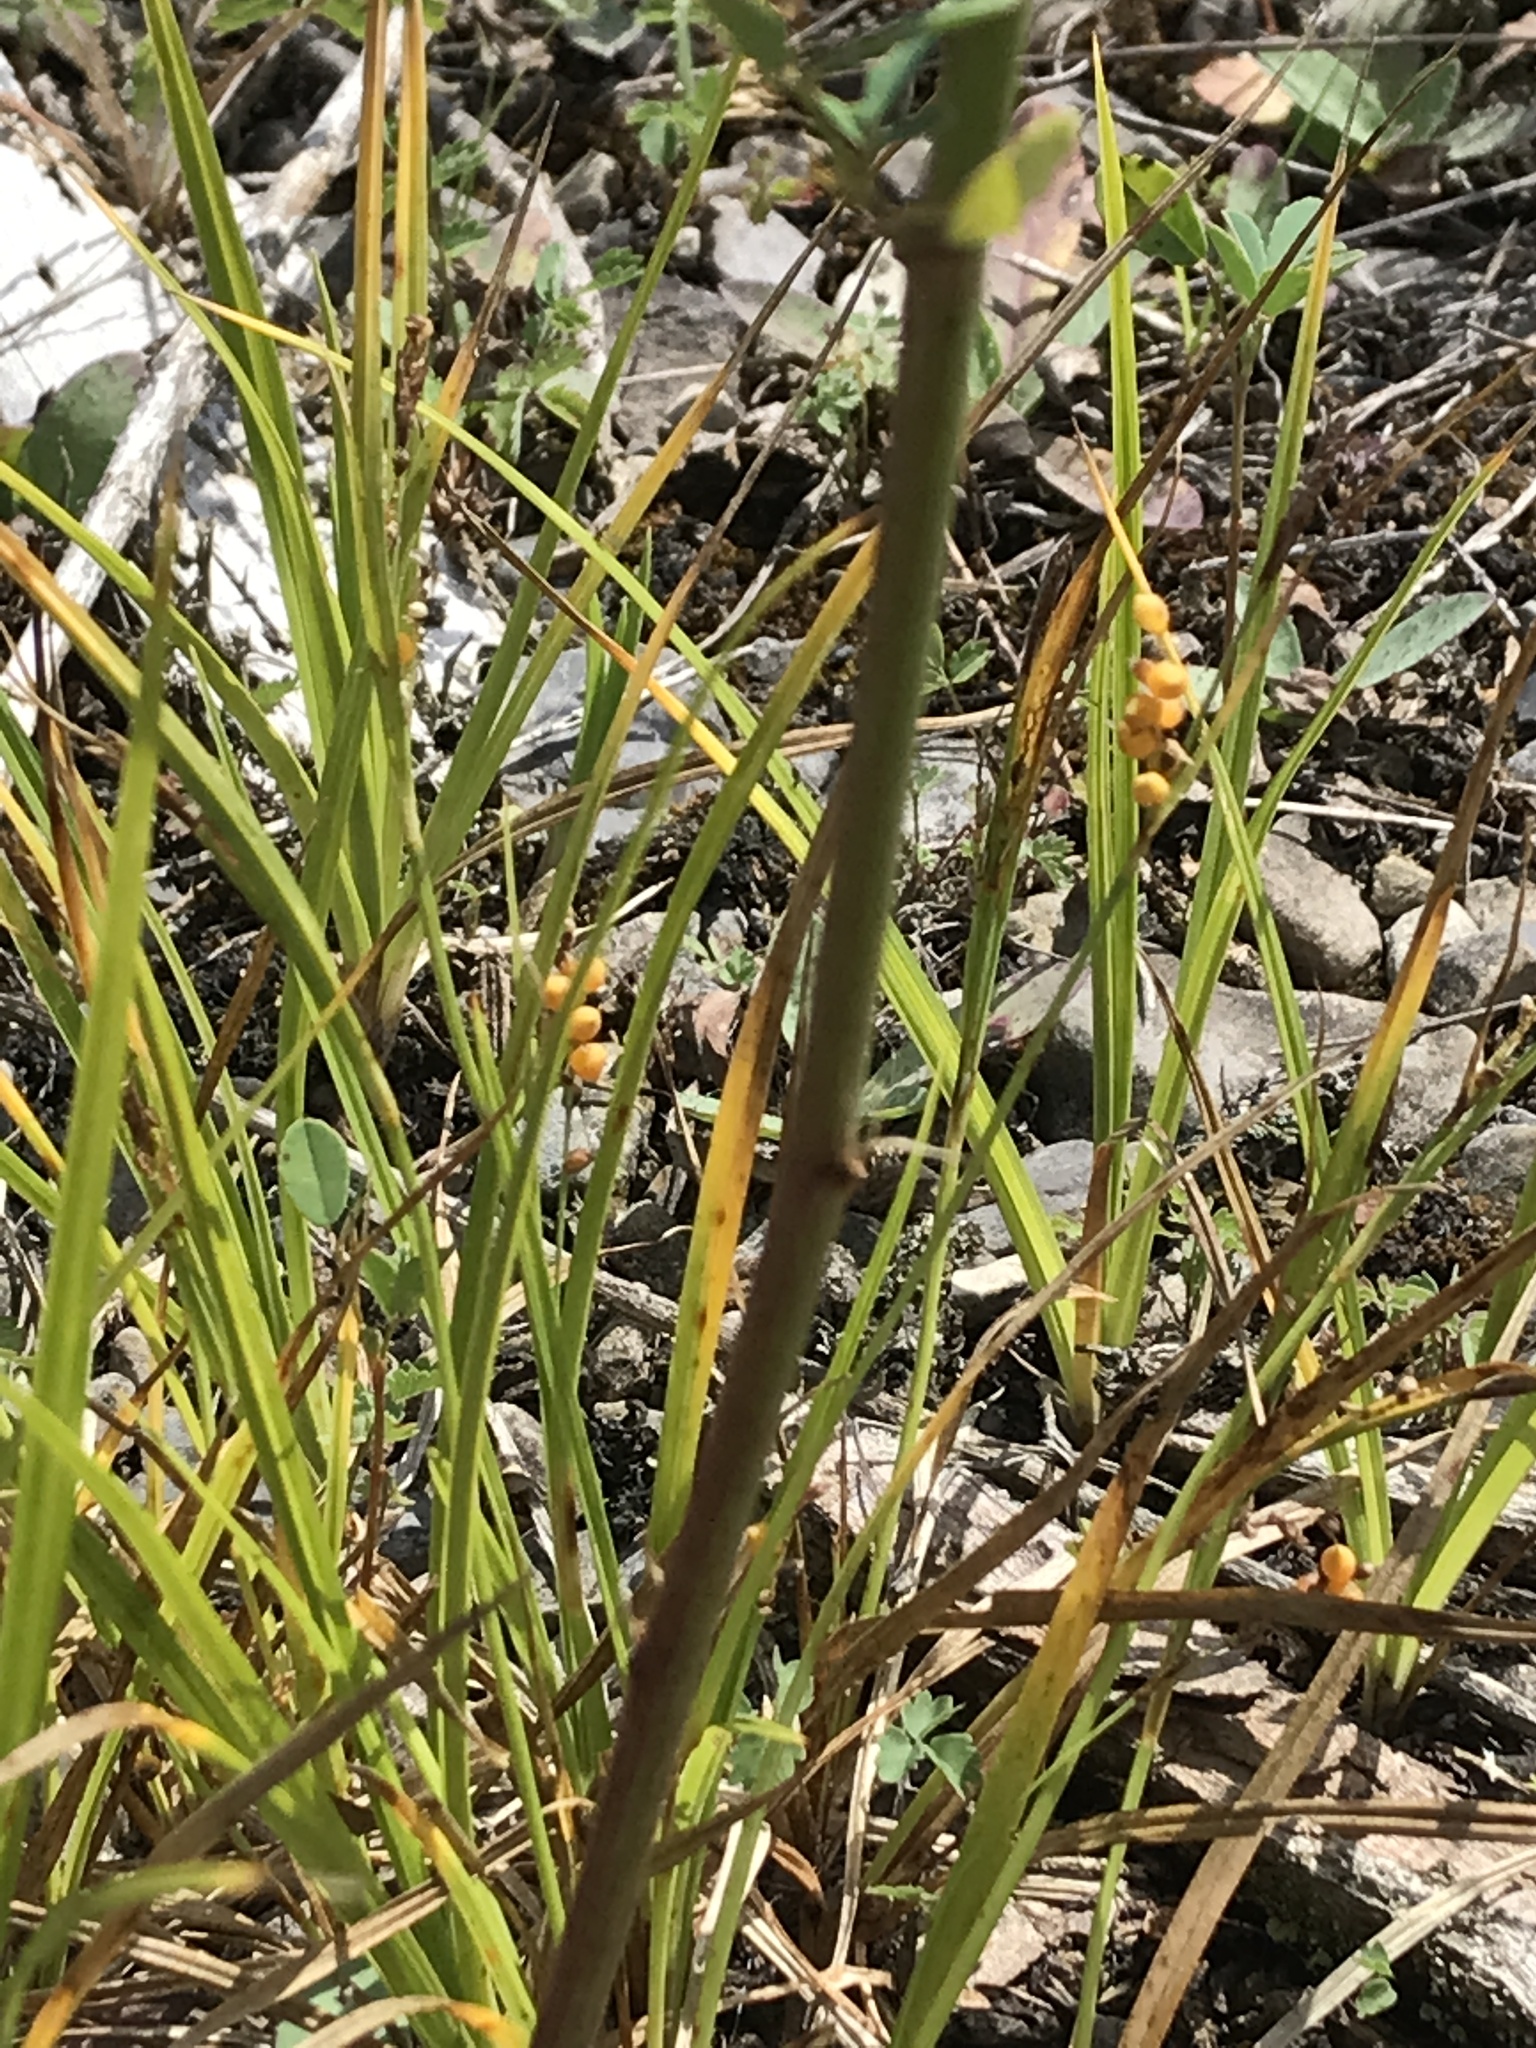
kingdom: Plantae
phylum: Tracheophyta
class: Liliopsida
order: Poales
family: Cyperaceae
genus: Carex
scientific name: Carex aurea
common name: Golden sedge
